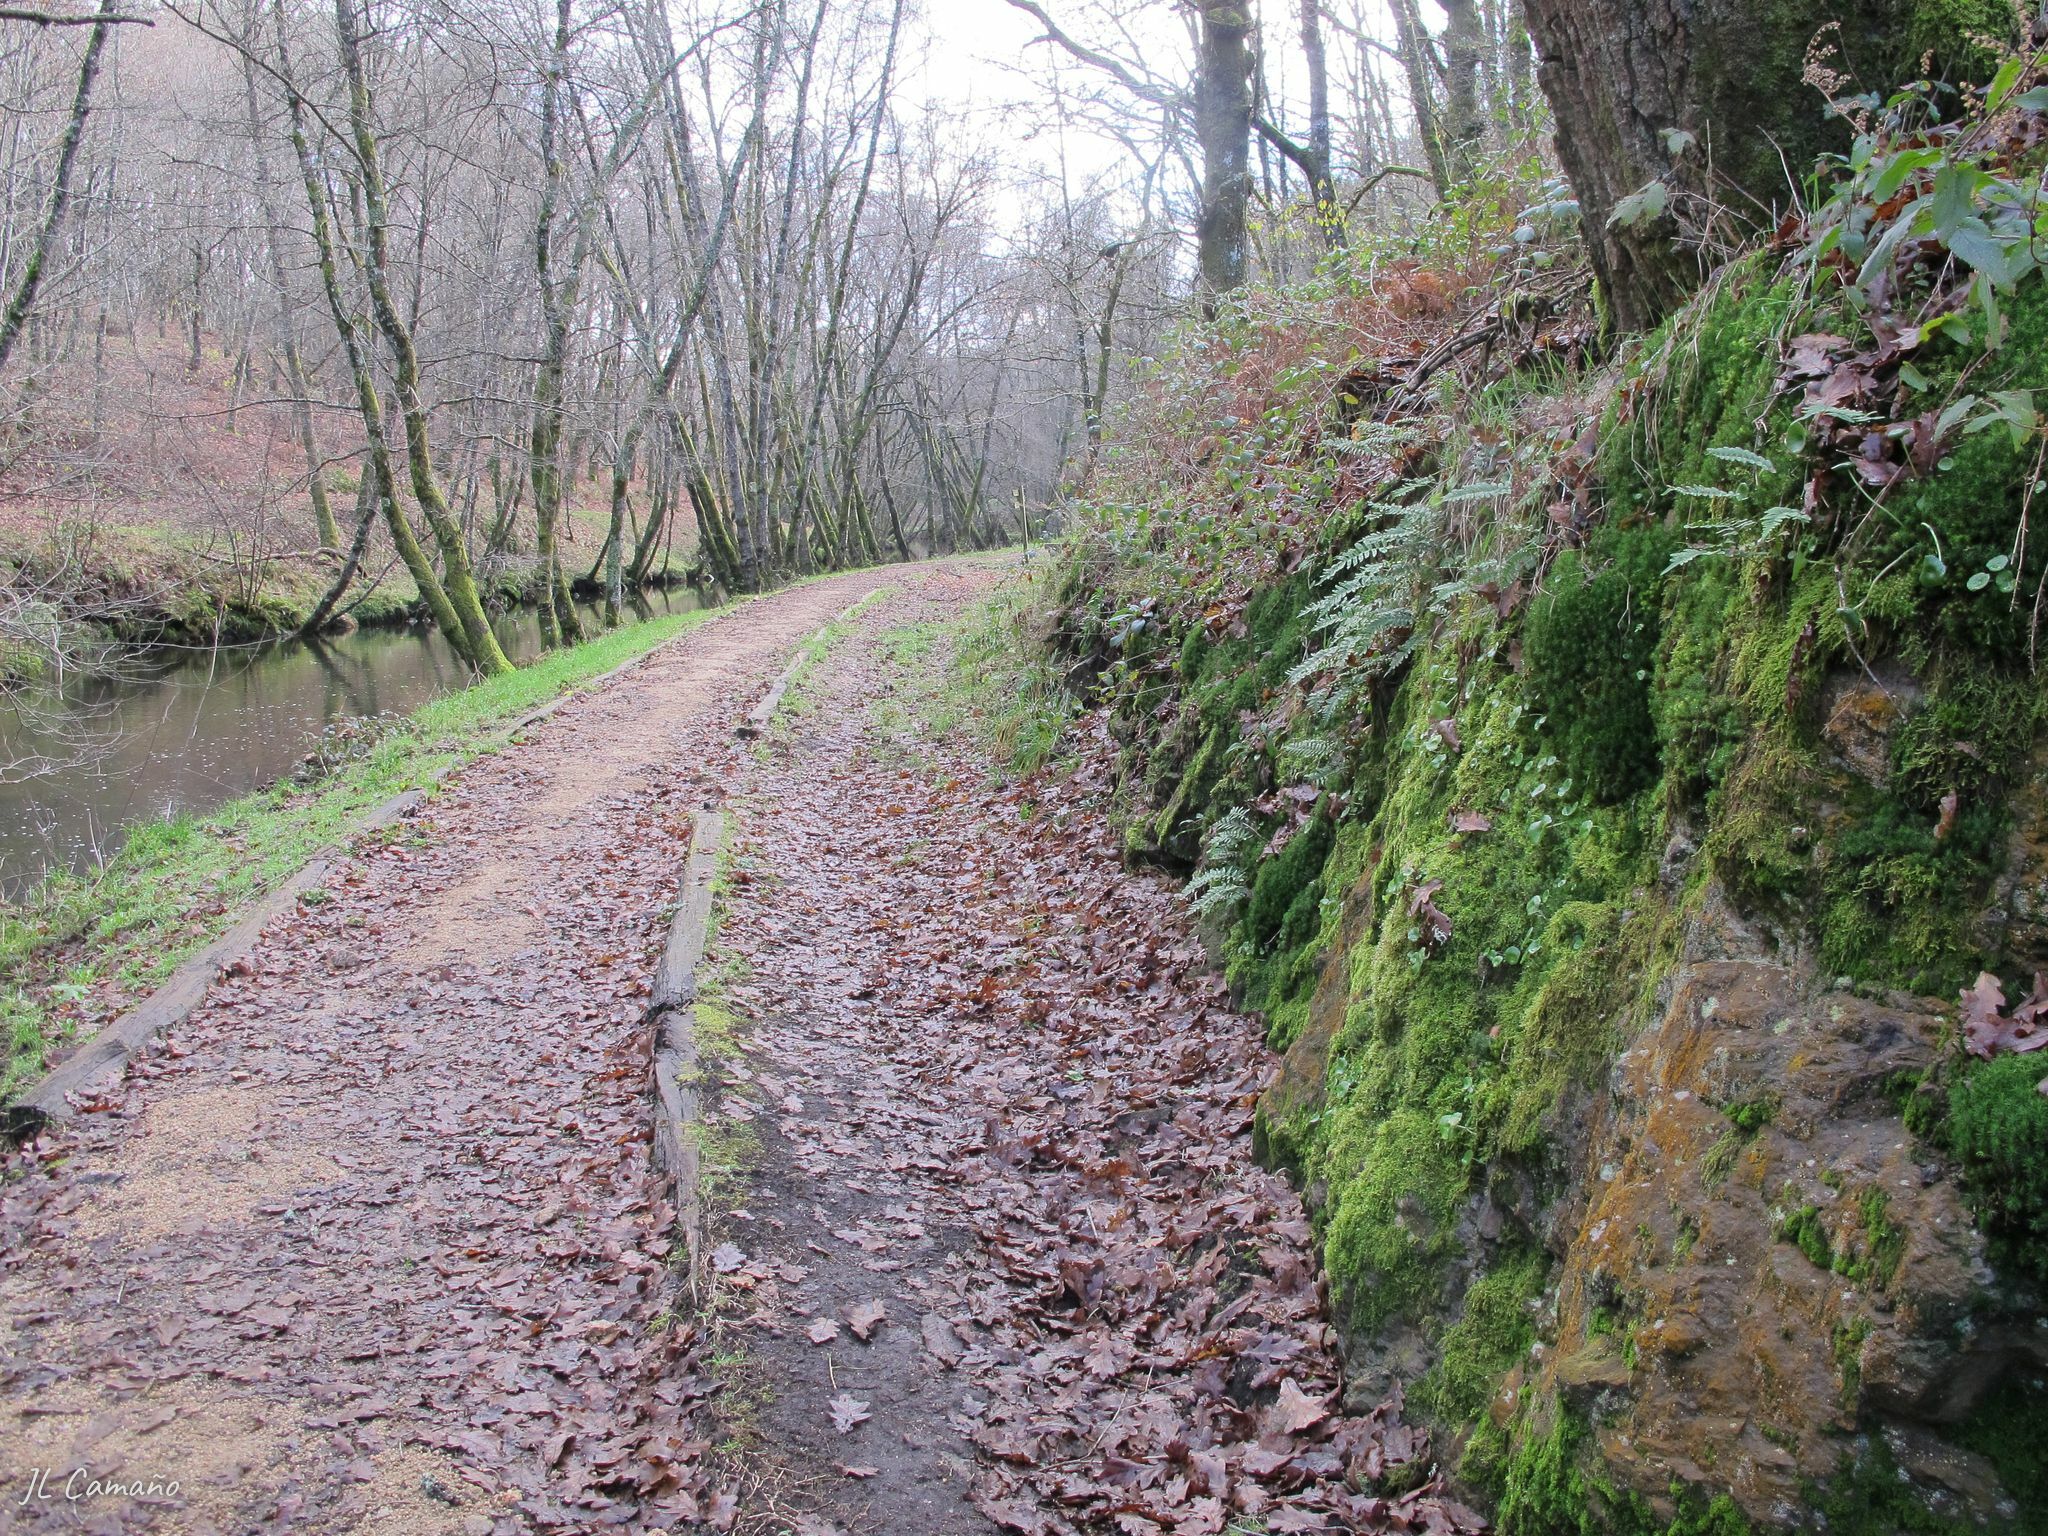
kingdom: Plantae
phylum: Bryophyta
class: Bryopsida
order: Bartramiales
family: Bartramiaceae
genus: Bartramia
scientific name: Bartramia ithyphylla
